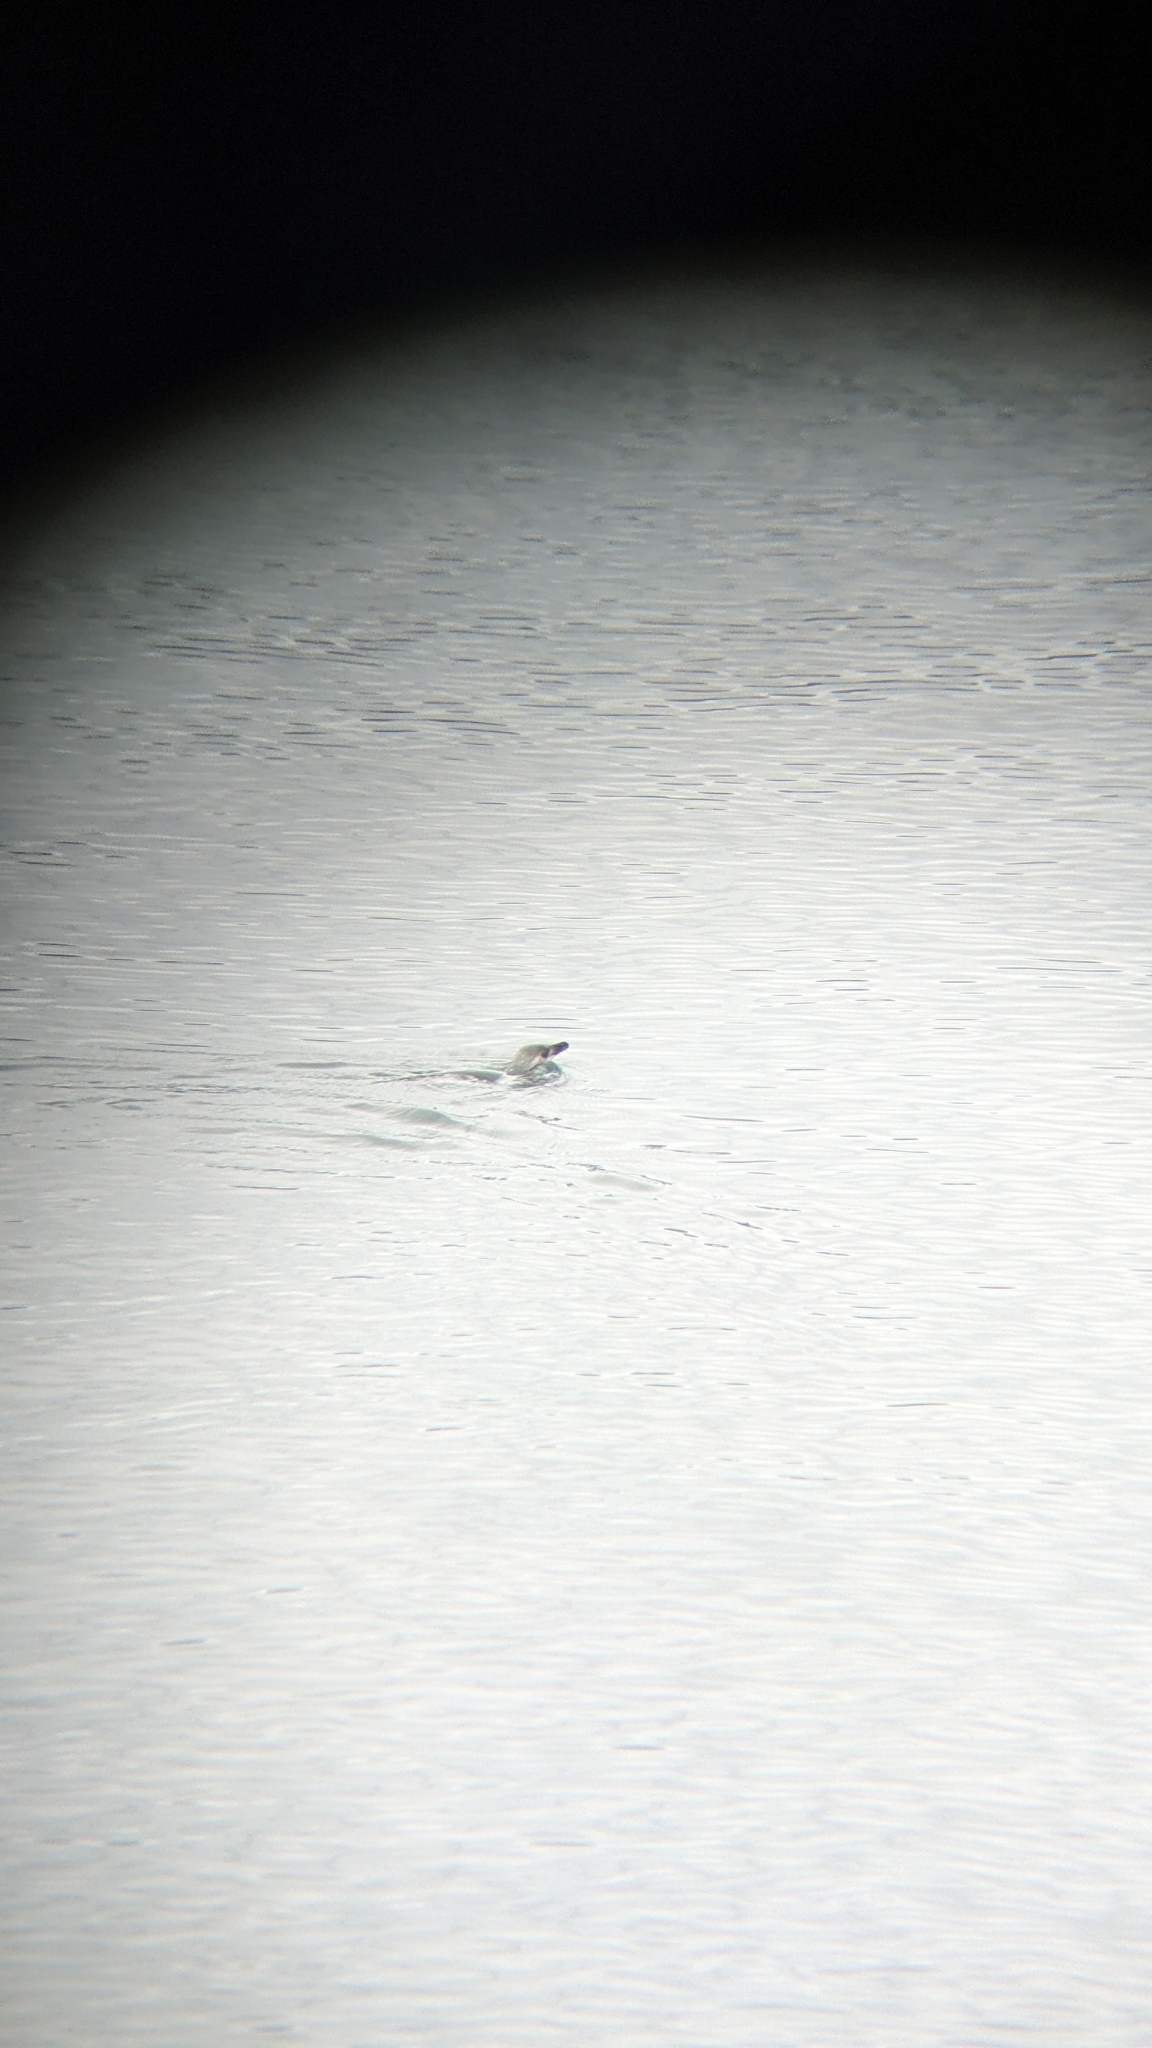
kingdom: Animalia
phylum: Chordata
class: Aves
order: Sphenisciformes
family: Spheniscidae
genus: Eudyptula
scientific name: Eudyptula minor
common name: Little penguin
